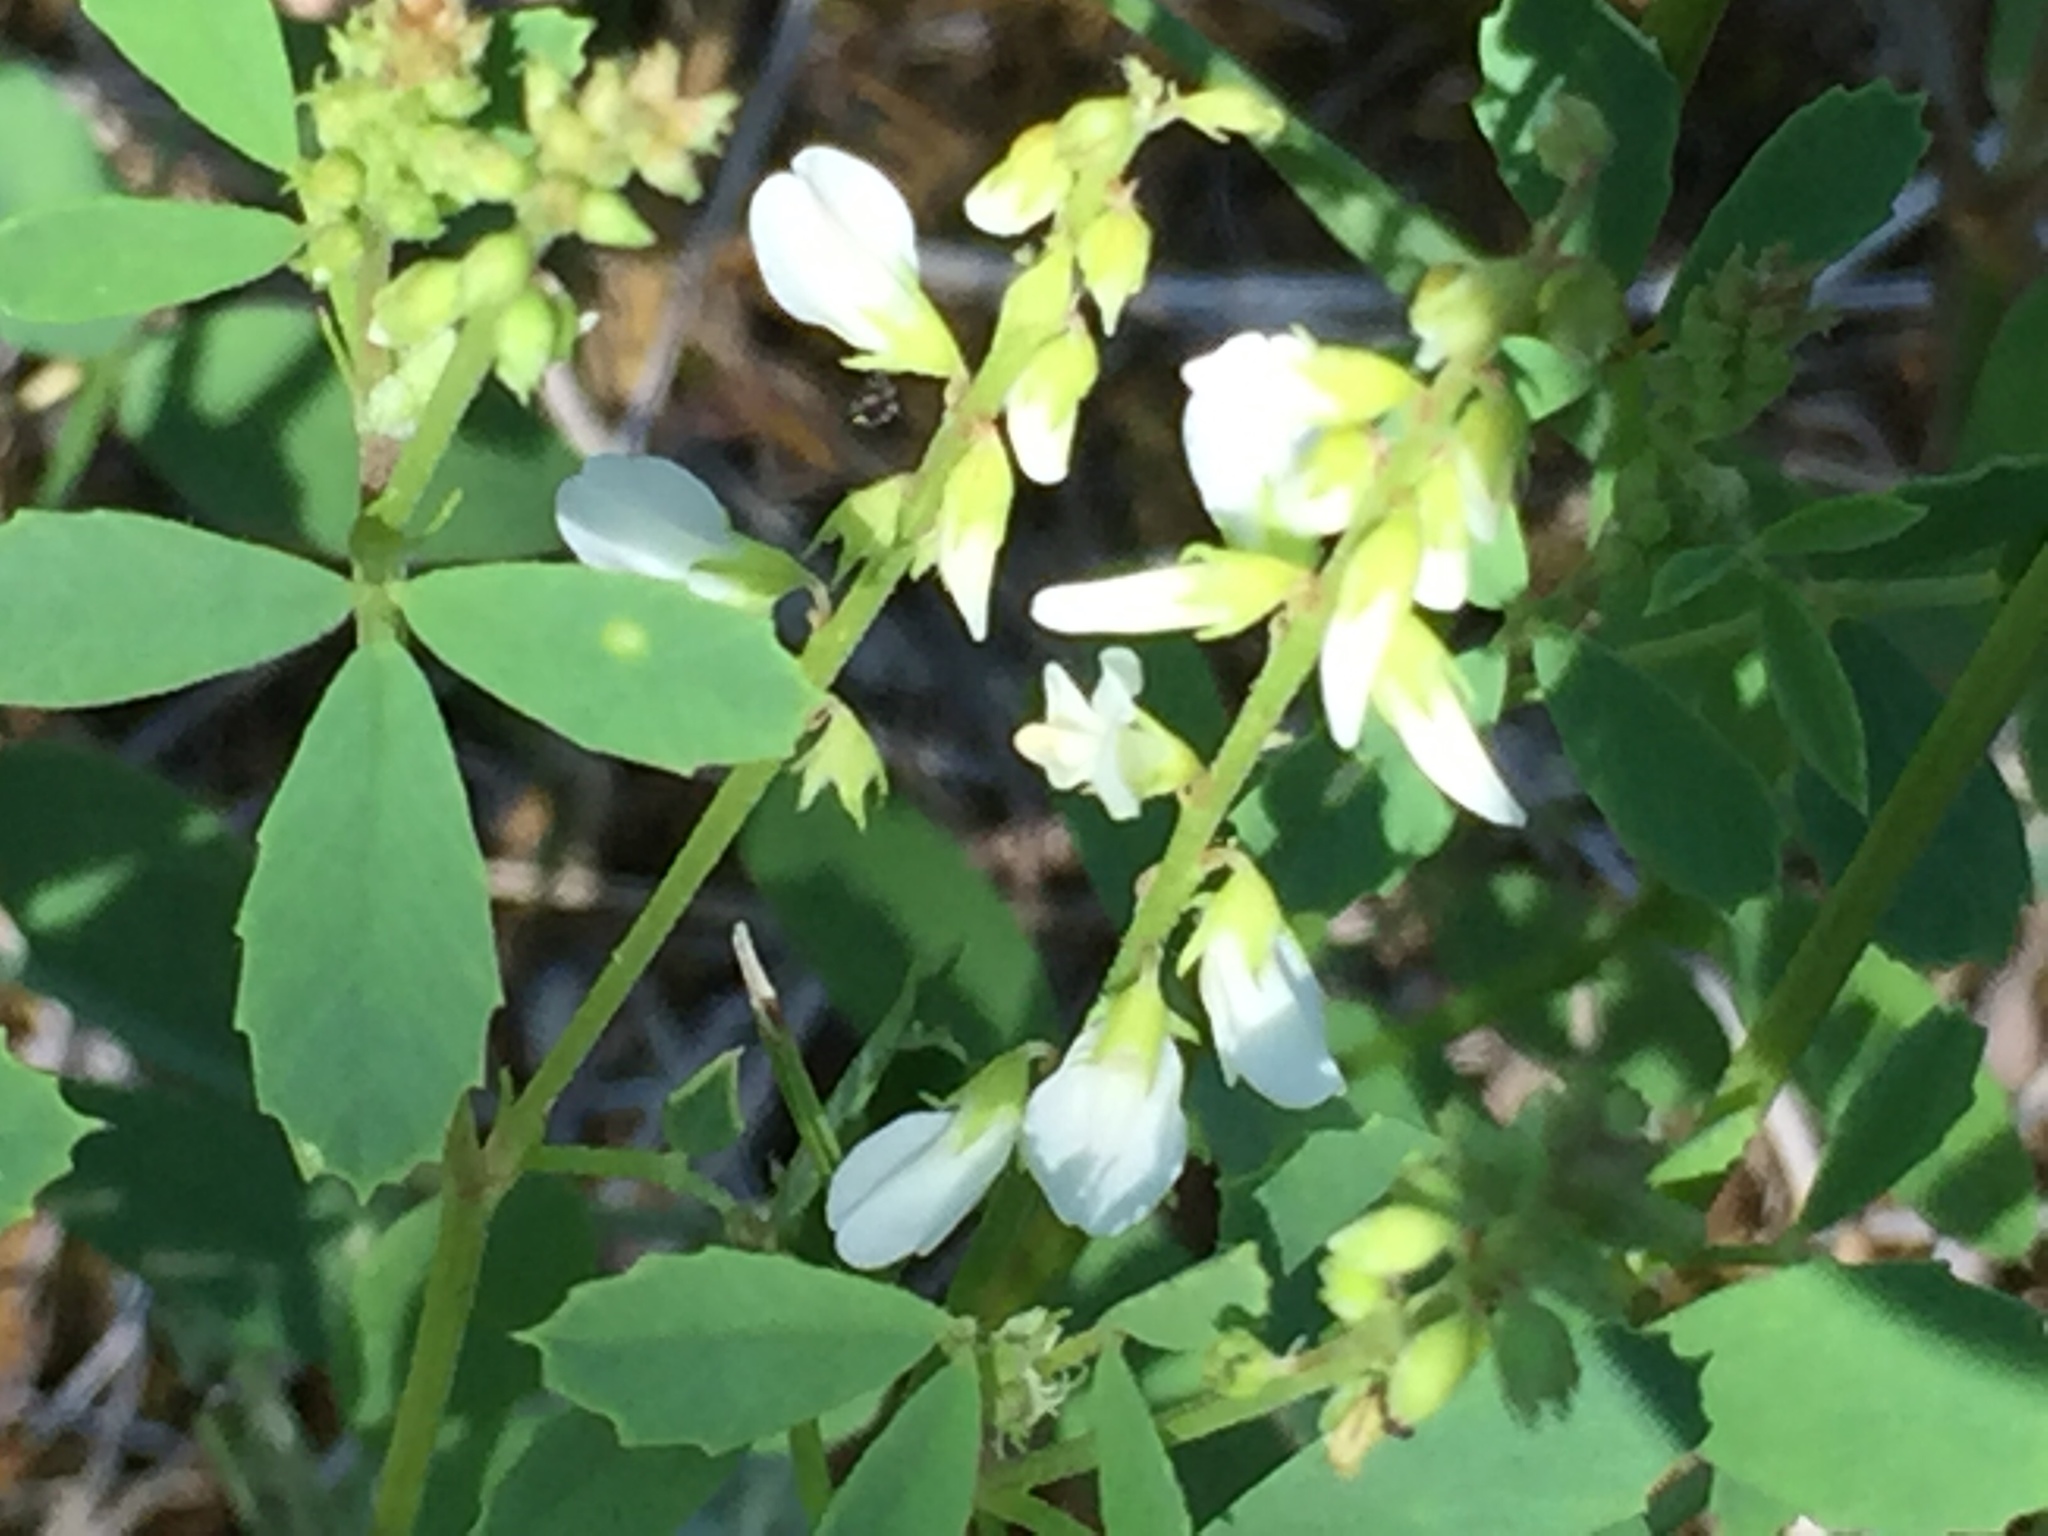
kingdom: Plantae
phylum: Tracheophyta
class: Magnoliopsida
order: Fabales
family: Fabaceae
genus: Melilotus
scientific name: Melilotus albus
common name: White melilot
